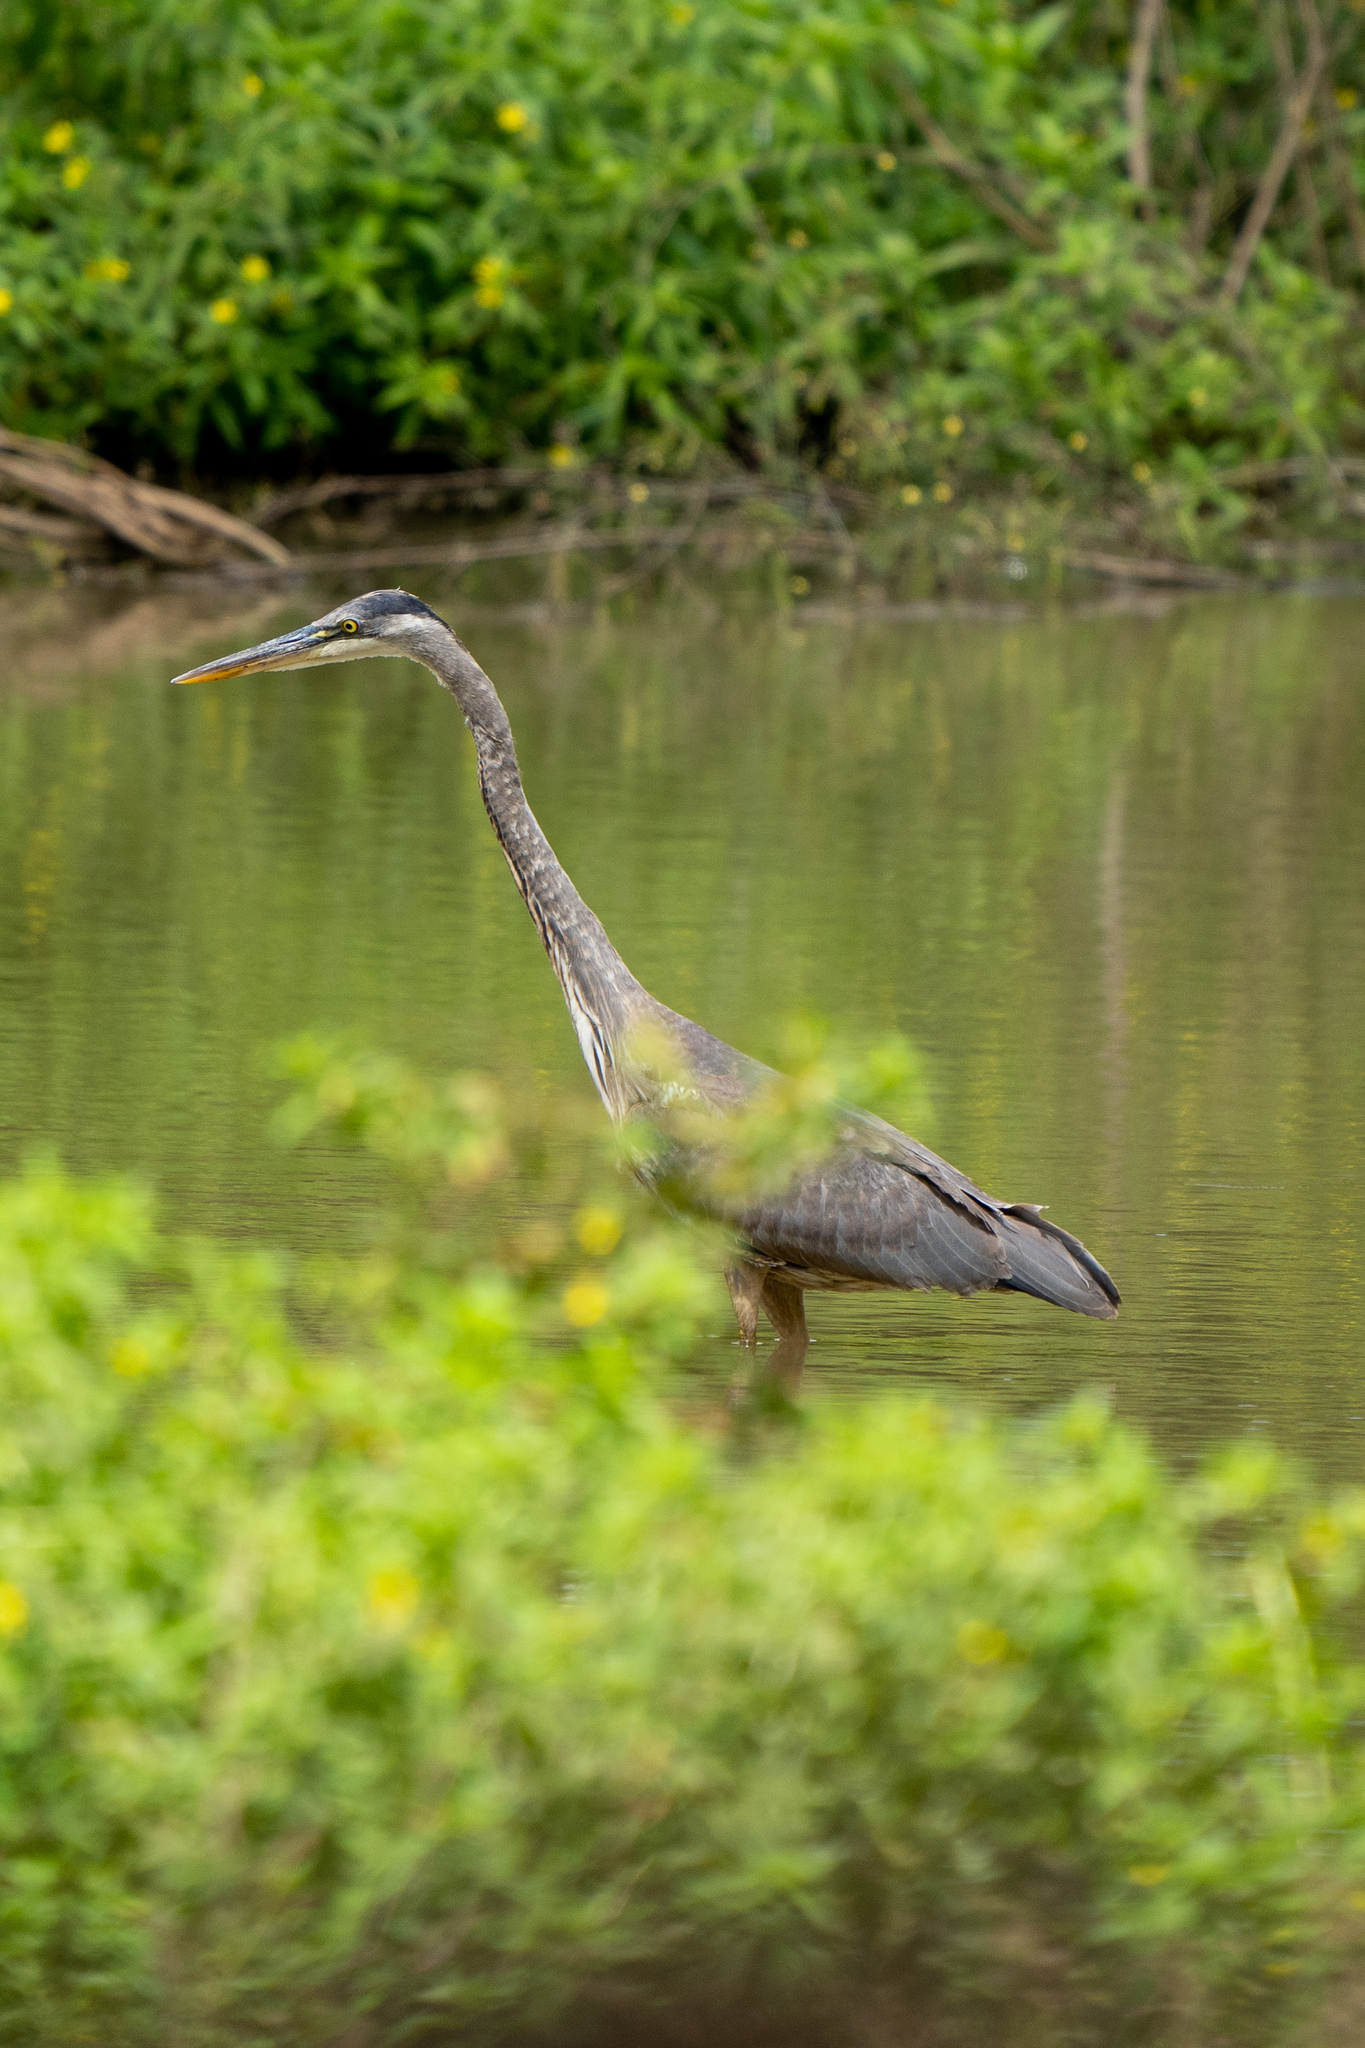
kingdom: Animalia
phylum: Chordata
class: Aves
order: Pelecaniformes
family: Ardeidae
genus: Ardea
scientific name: Ardea herodias
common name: Great blue heron
